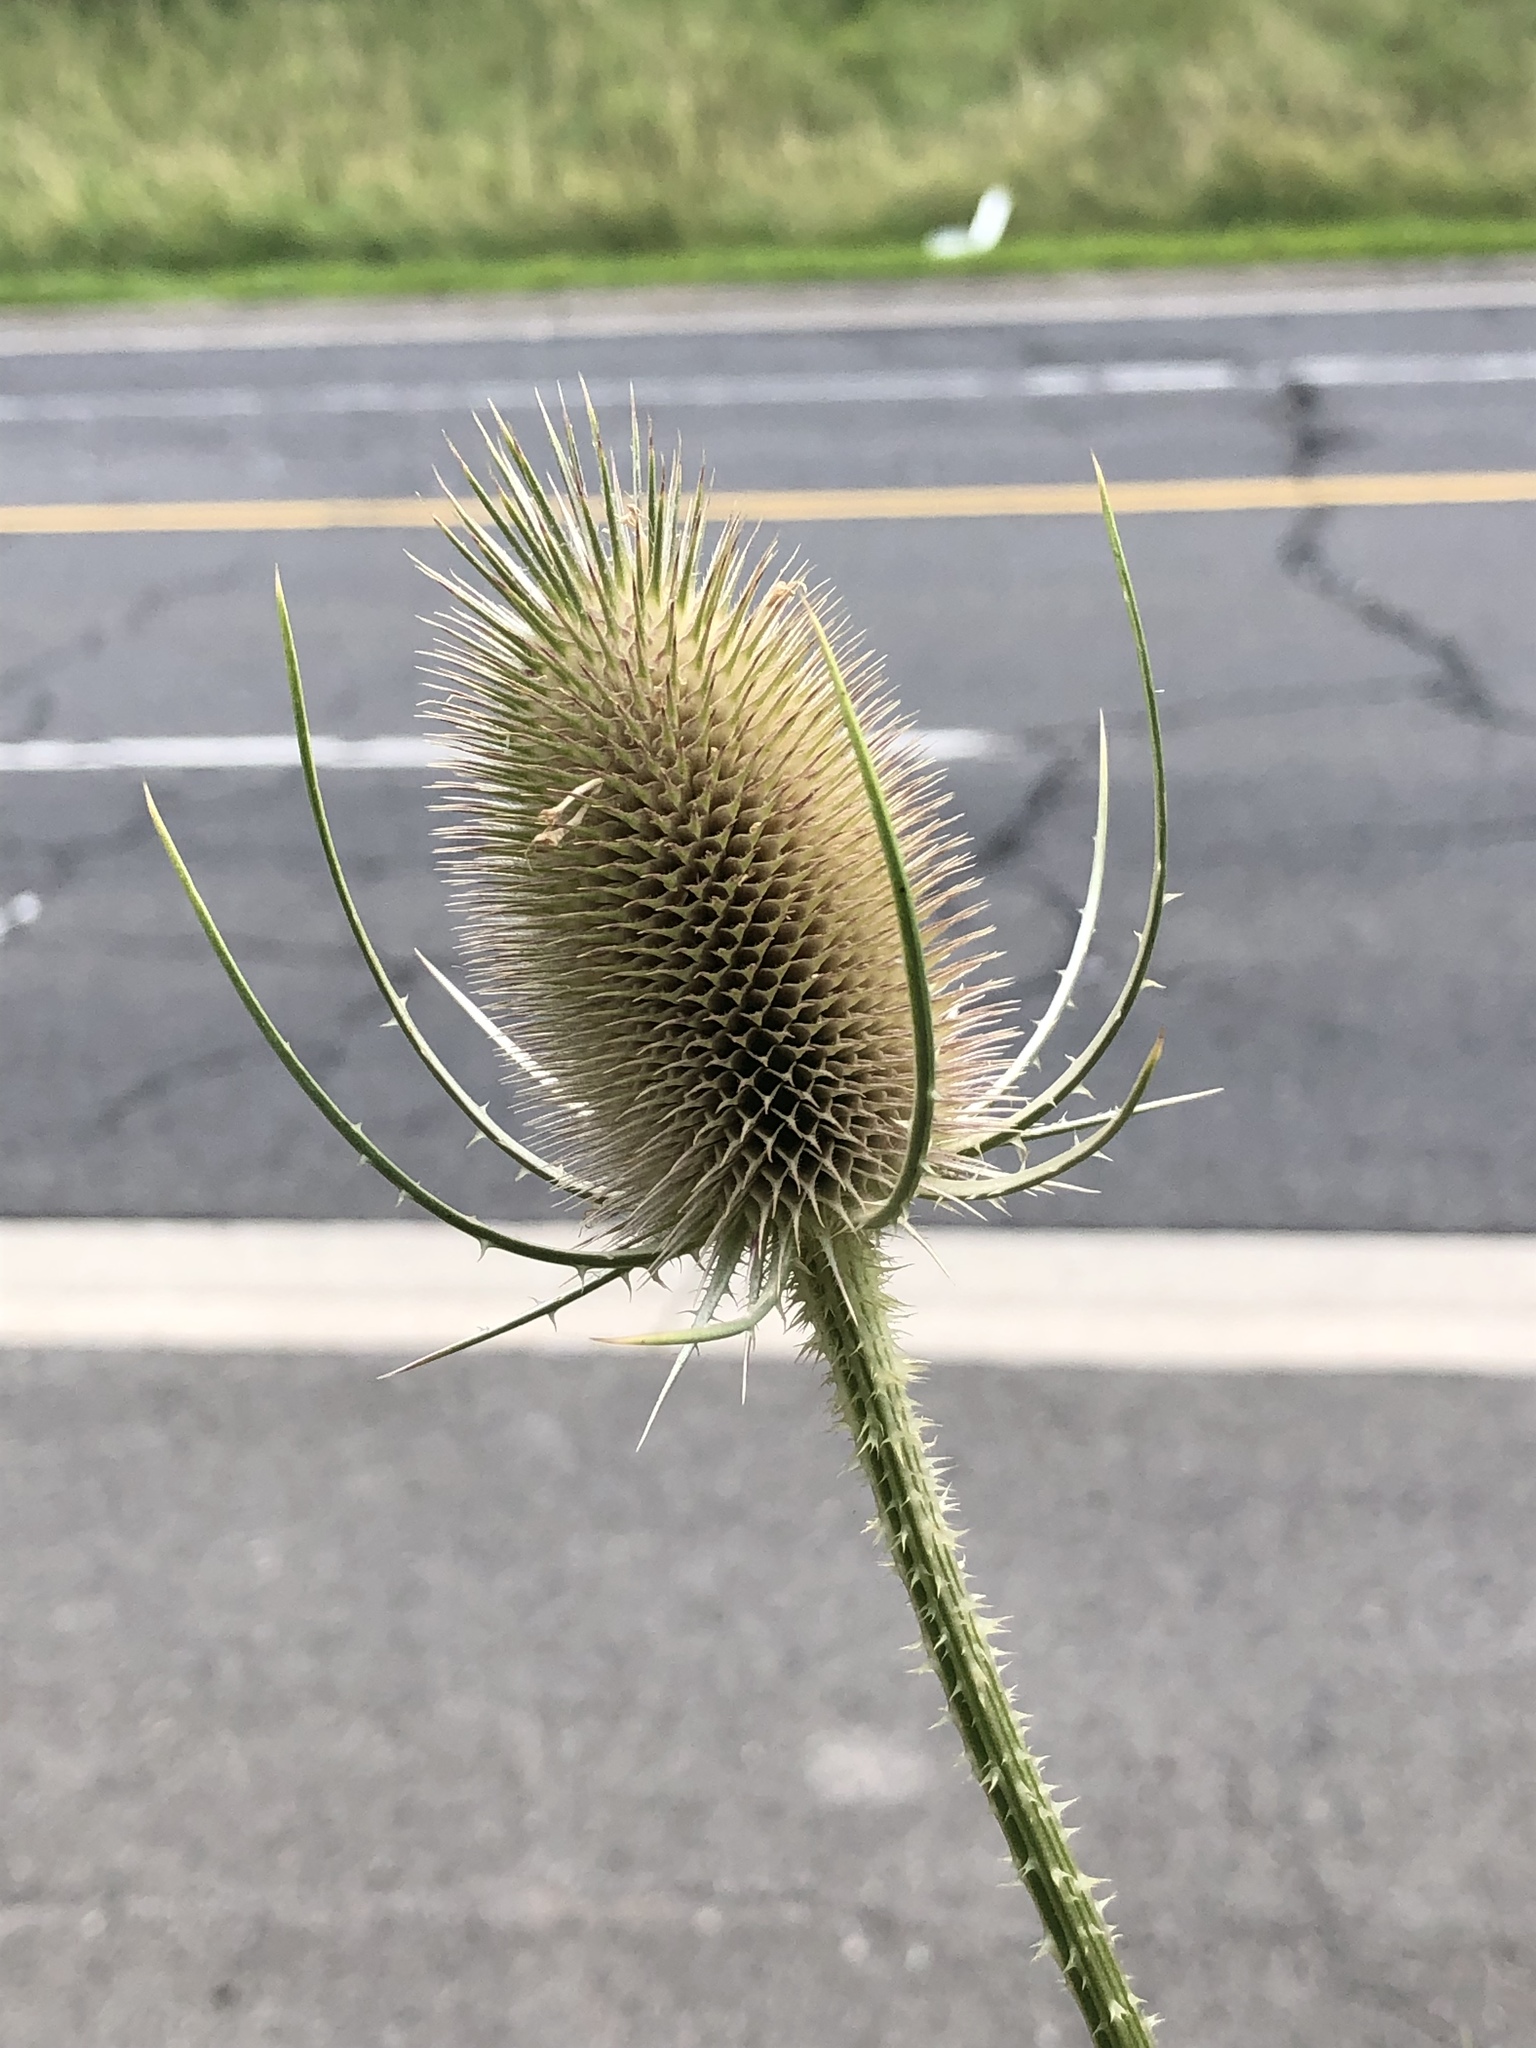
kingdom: Plantae
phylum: Tracheophyta
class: Magnoliopsida
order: Dipsacales
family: Caprifoliaceae
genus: Dipsacus
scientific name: Dipsacus fullonum
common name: Teasel
